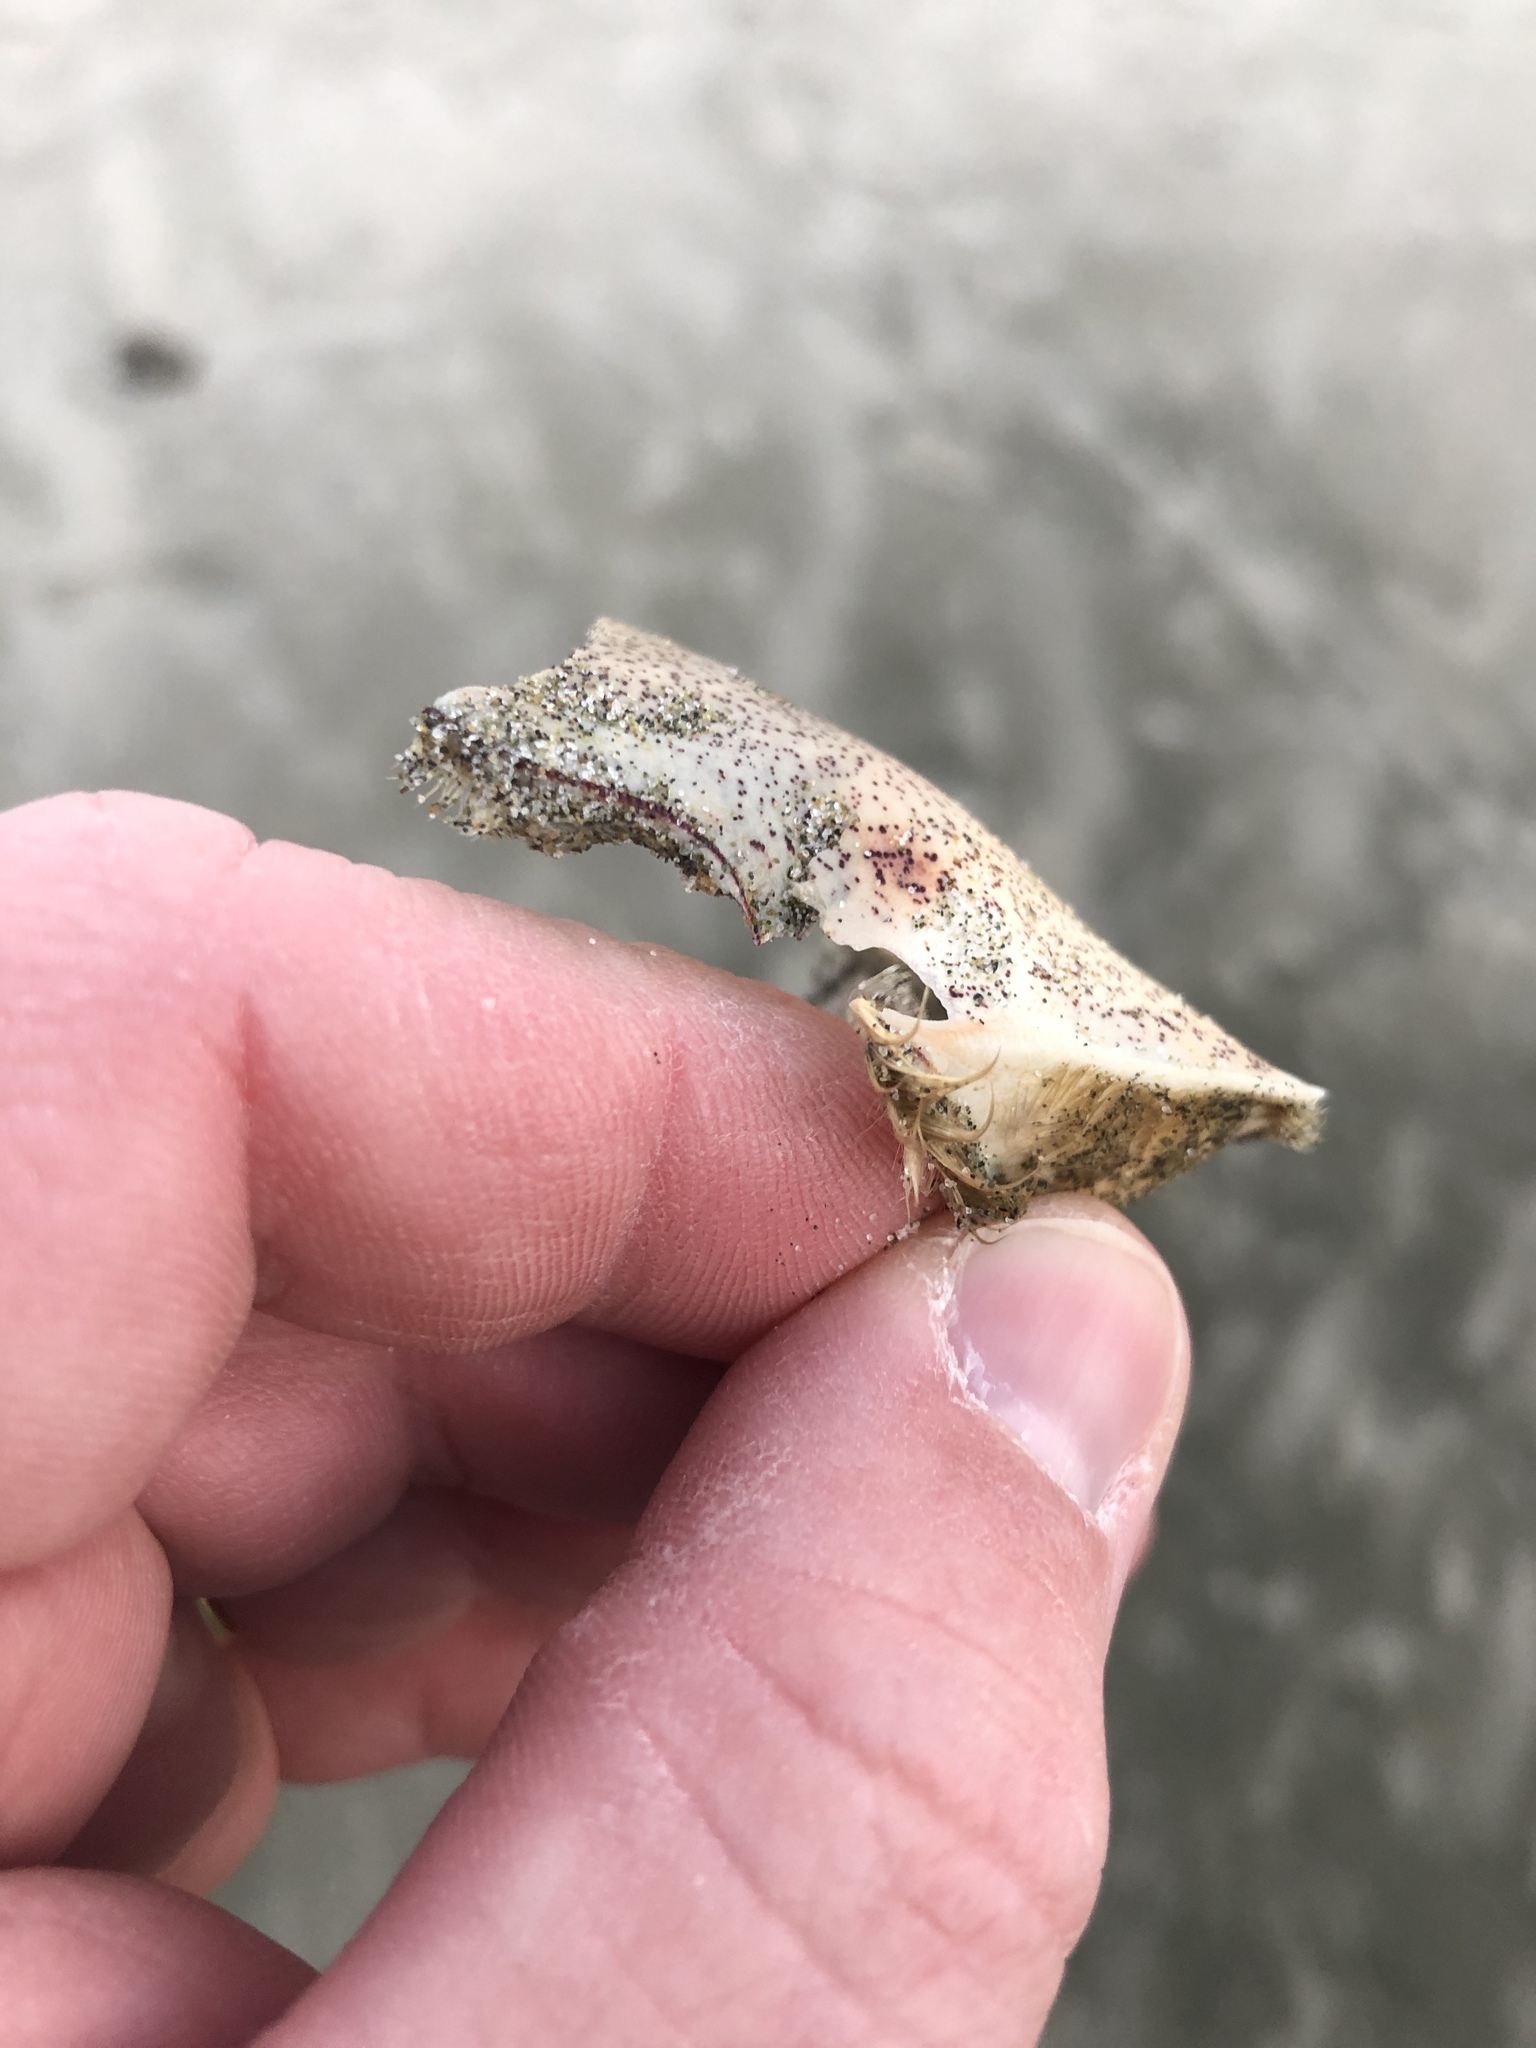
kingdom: Animalia
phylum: Arthropoda
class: Malacostraca
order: Decapoda
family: Ovalipidae
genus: Ovalipes
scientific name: Ovalipes catharus
